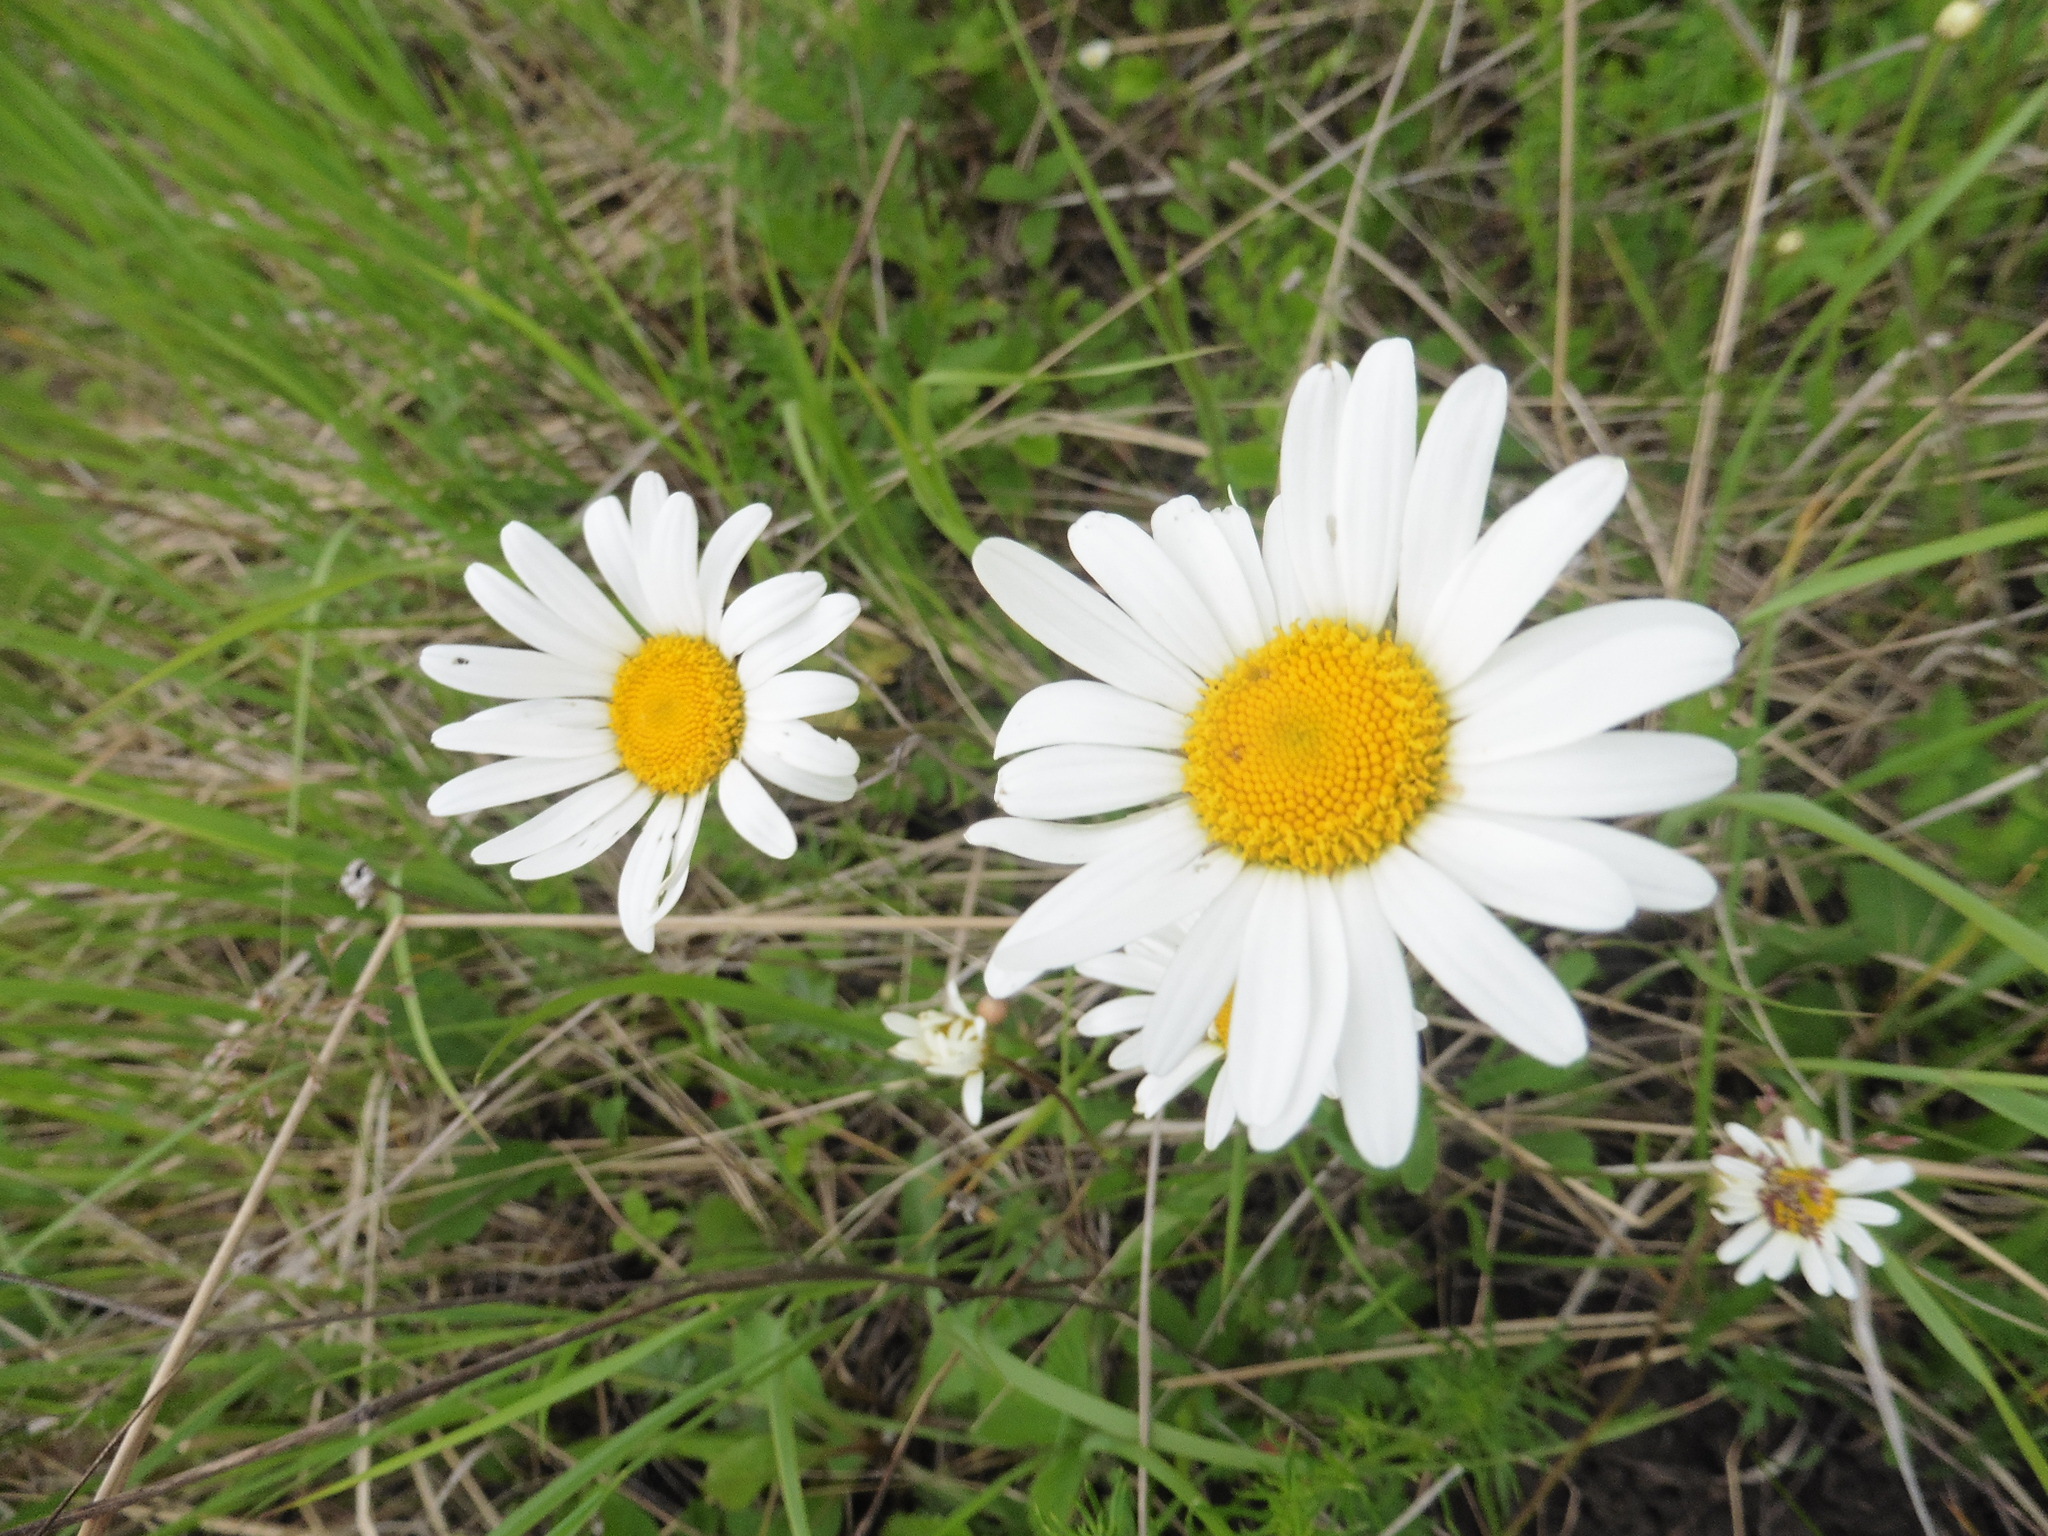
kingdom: Plantae
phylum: Tracheophyta
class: Magnoliopsida
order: Asterales
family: Asteraceae
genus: Leucanthemum
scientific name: Leucanthemum vulgare
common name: Oxeye daisy
